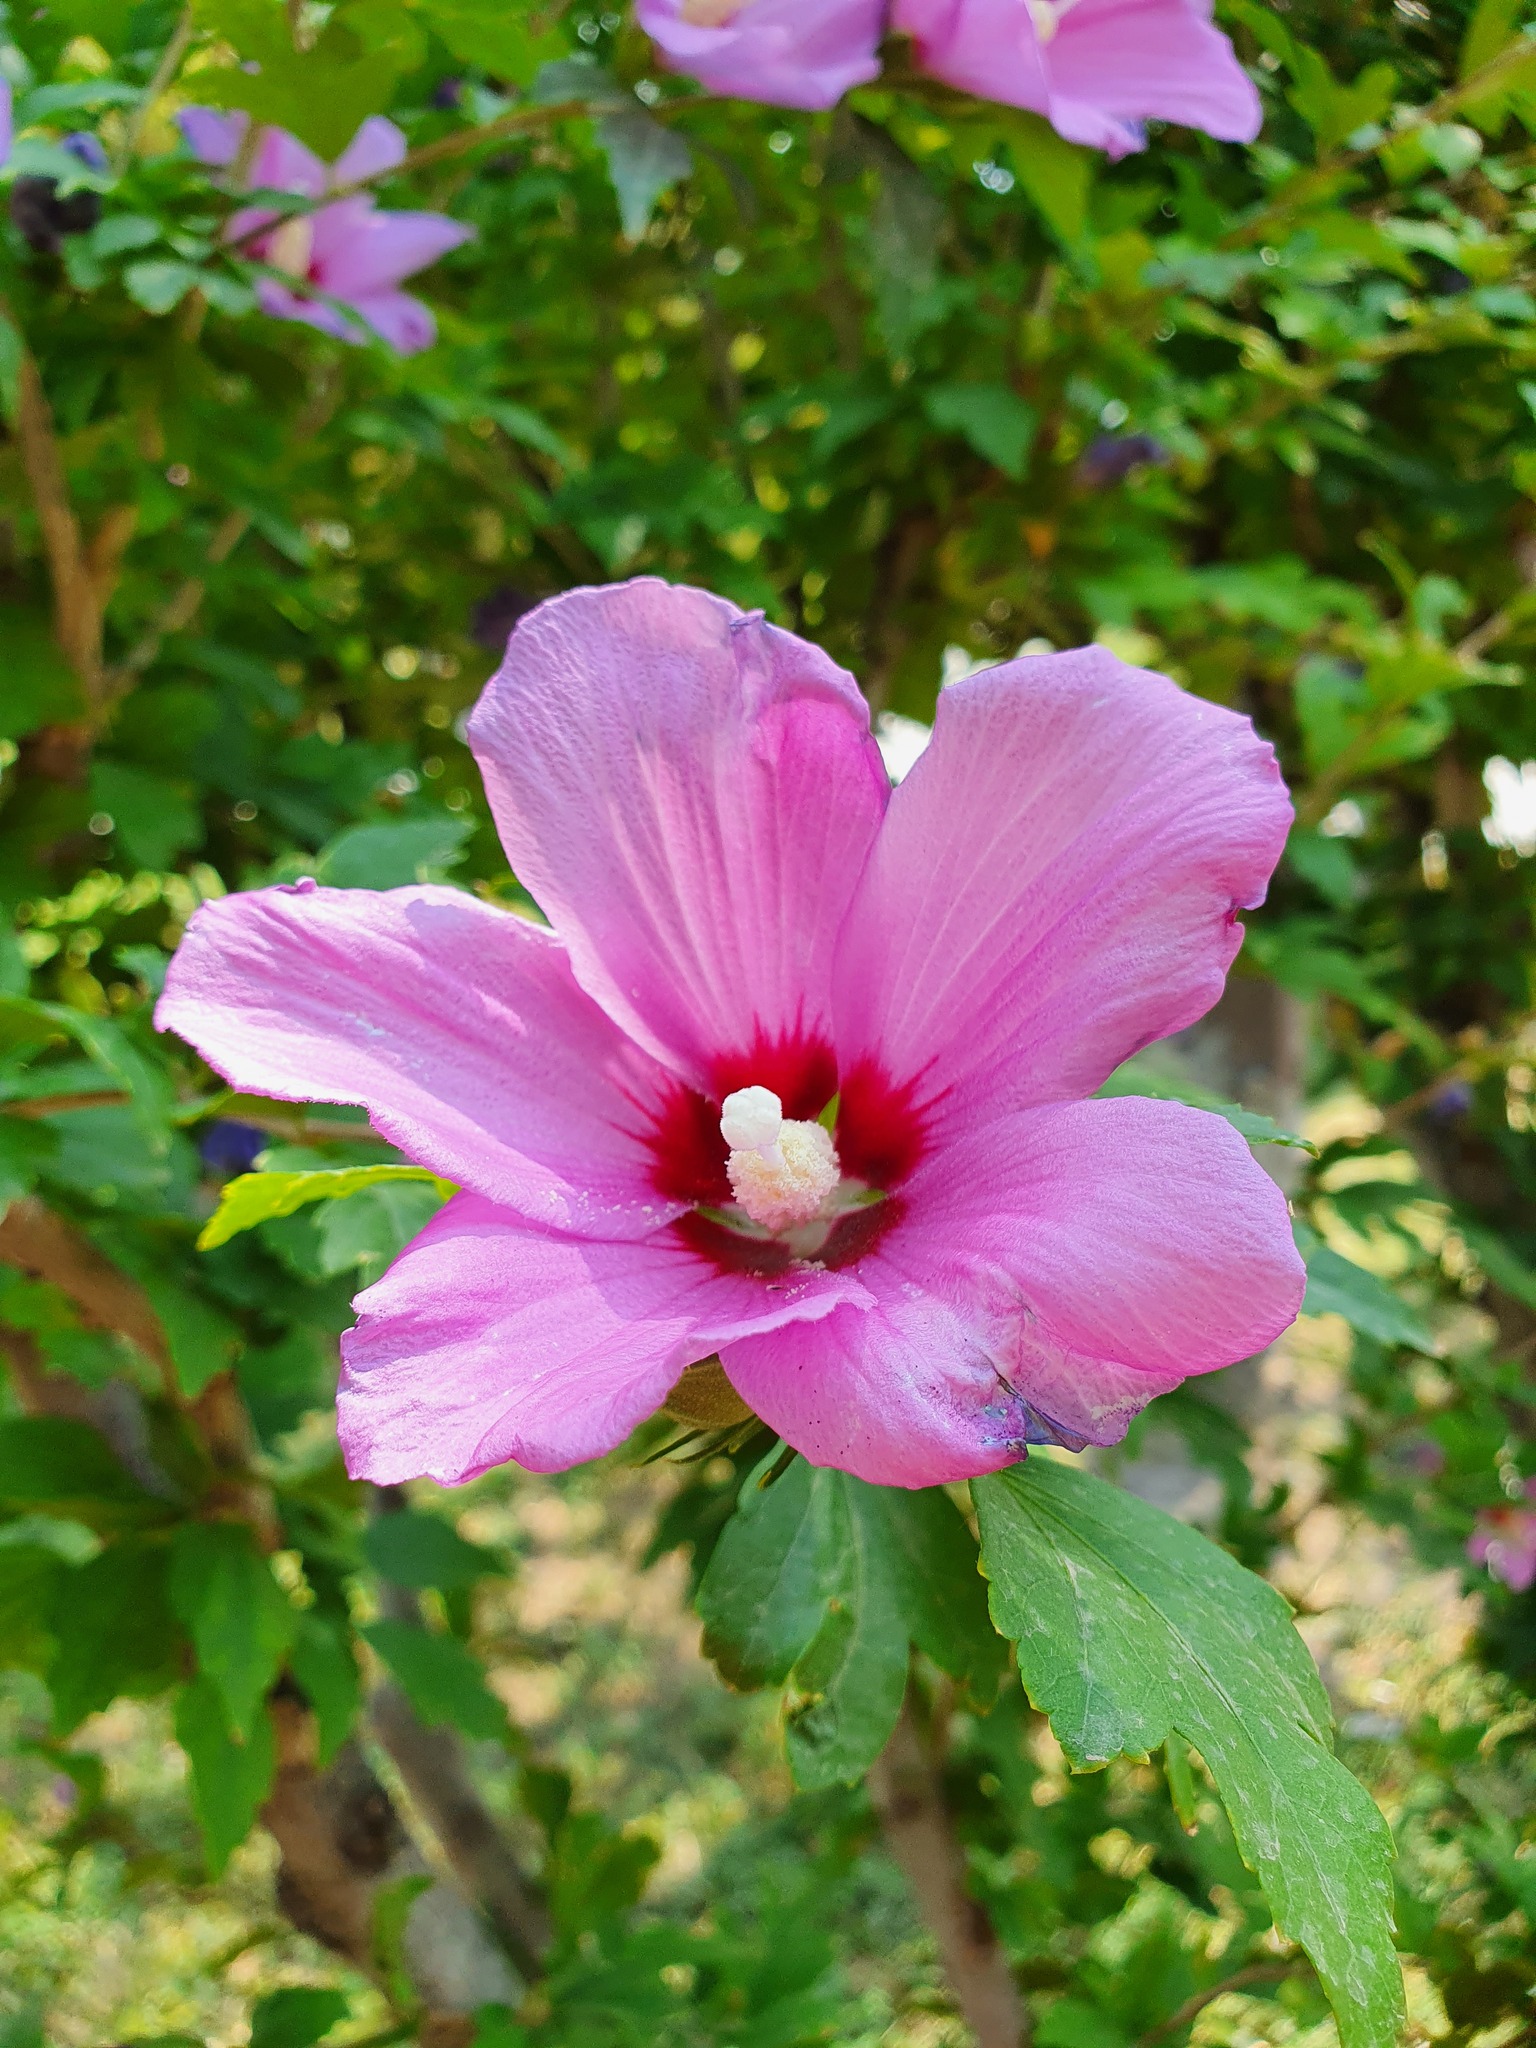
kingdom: Plantae
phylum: Tracheophyta
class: Magnoliopsida
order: Malvales
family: Malvaceae
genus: Hibiscus
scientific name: Hibiscus syriacus
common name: Syrian ketmia
